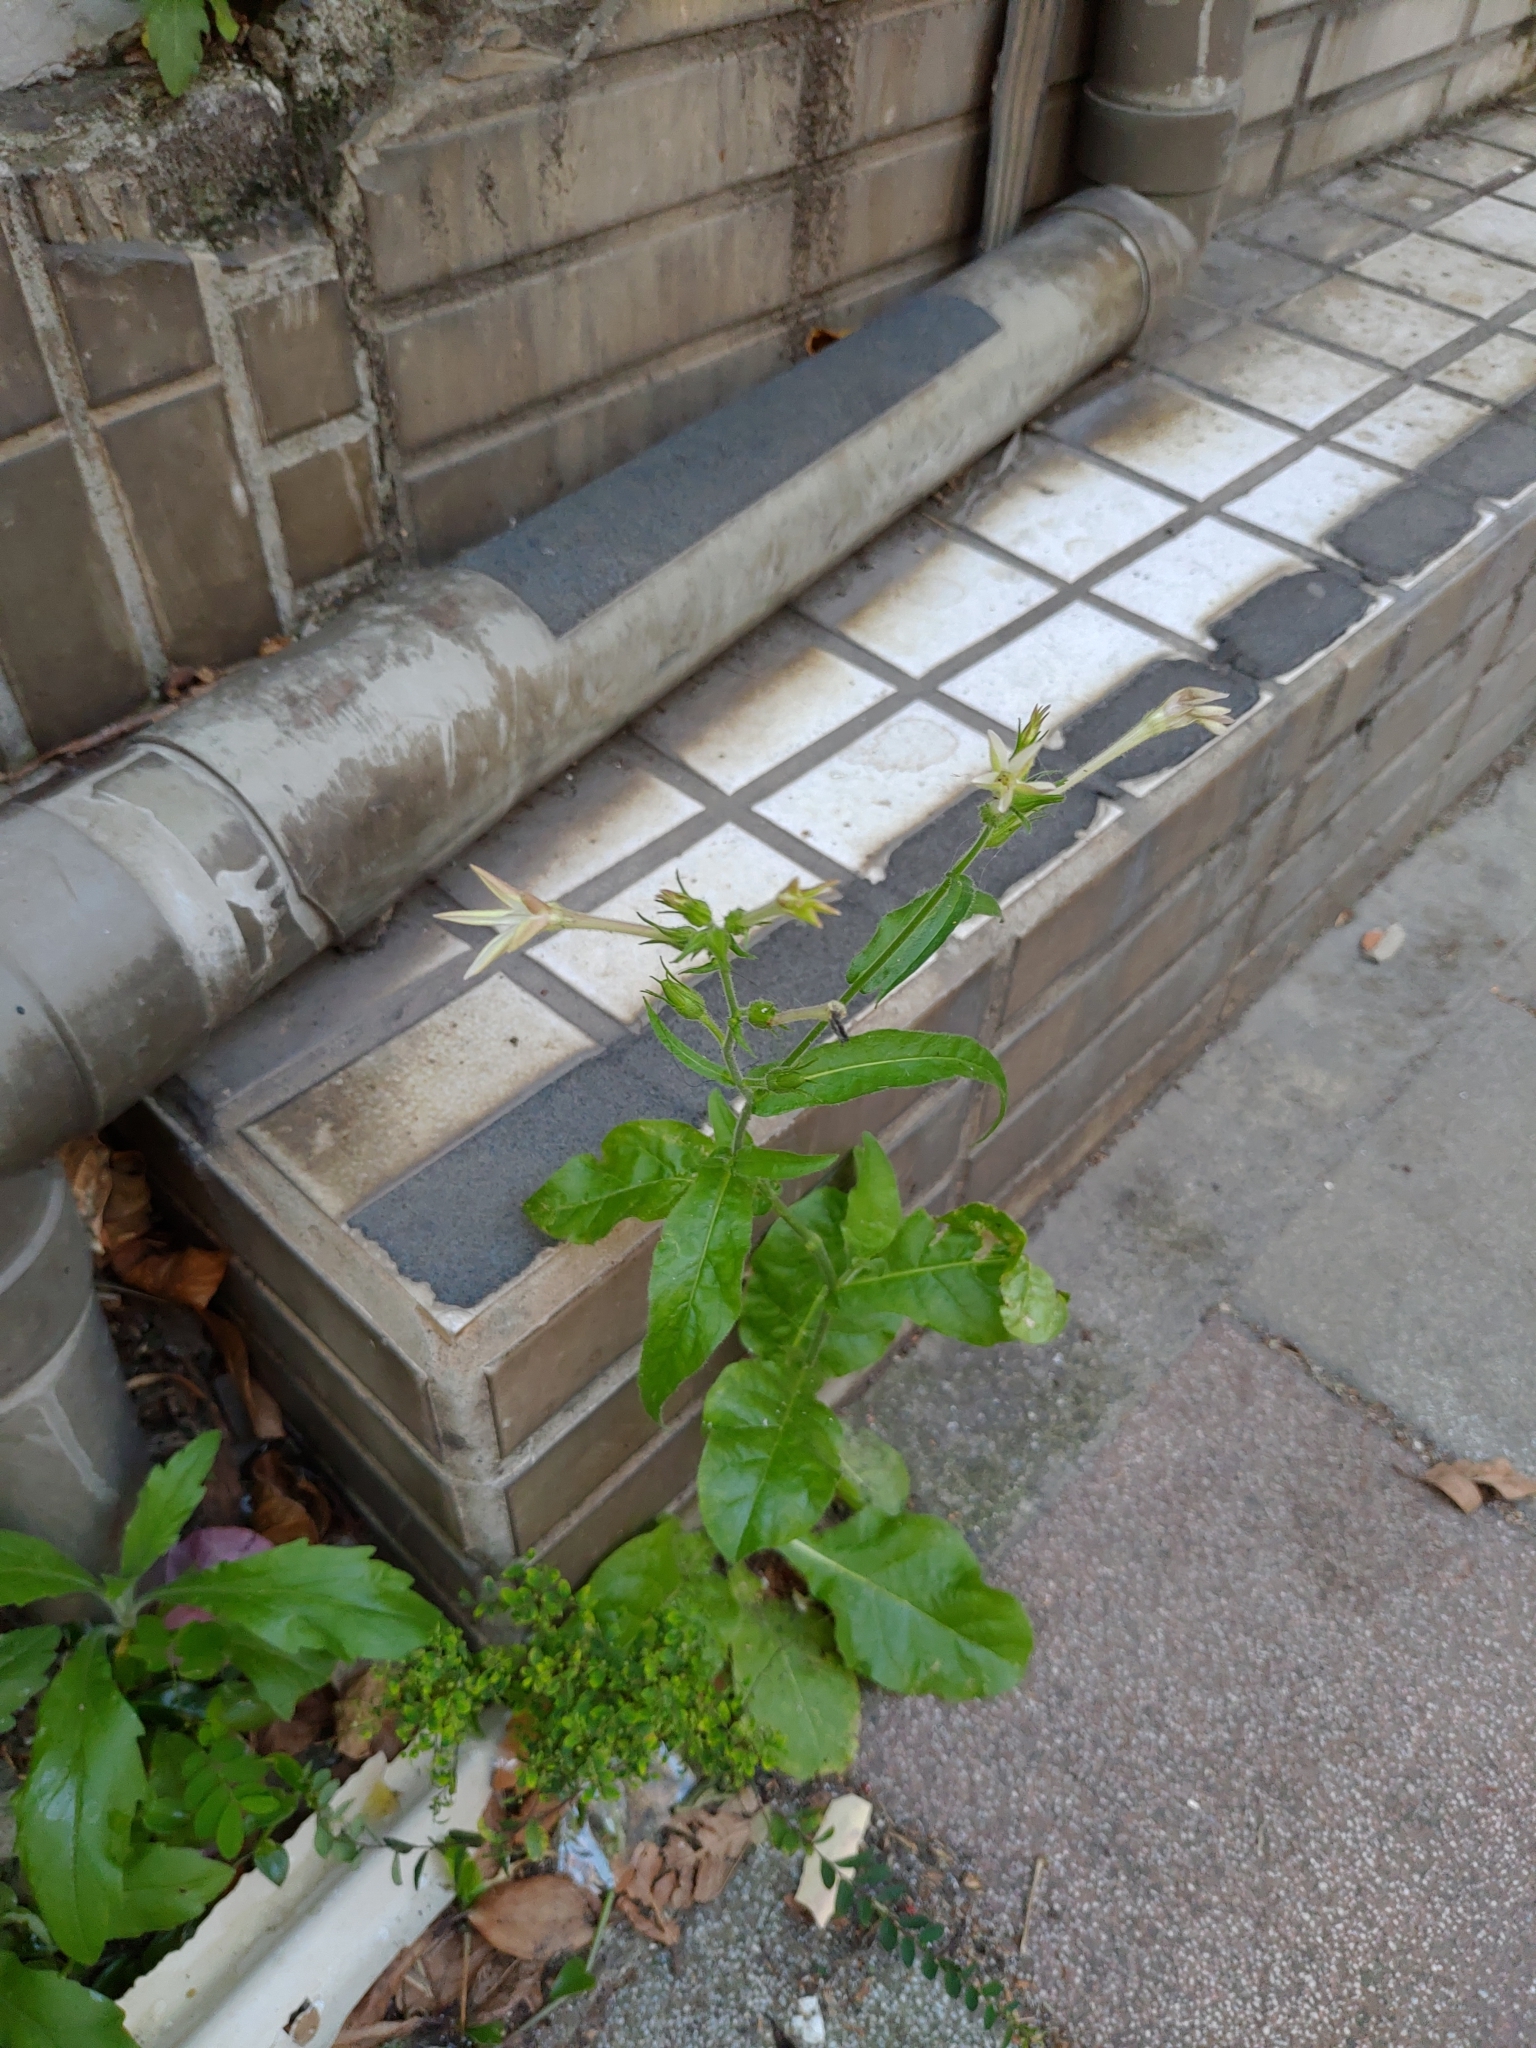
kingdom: Plantae
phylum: Tracheophyta
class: Magnoliopsida
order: Solanales
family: Solanaceae
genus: Nicotiana
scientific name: Nicotiana plumbaginifolia
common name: Tex-mex tobacco
